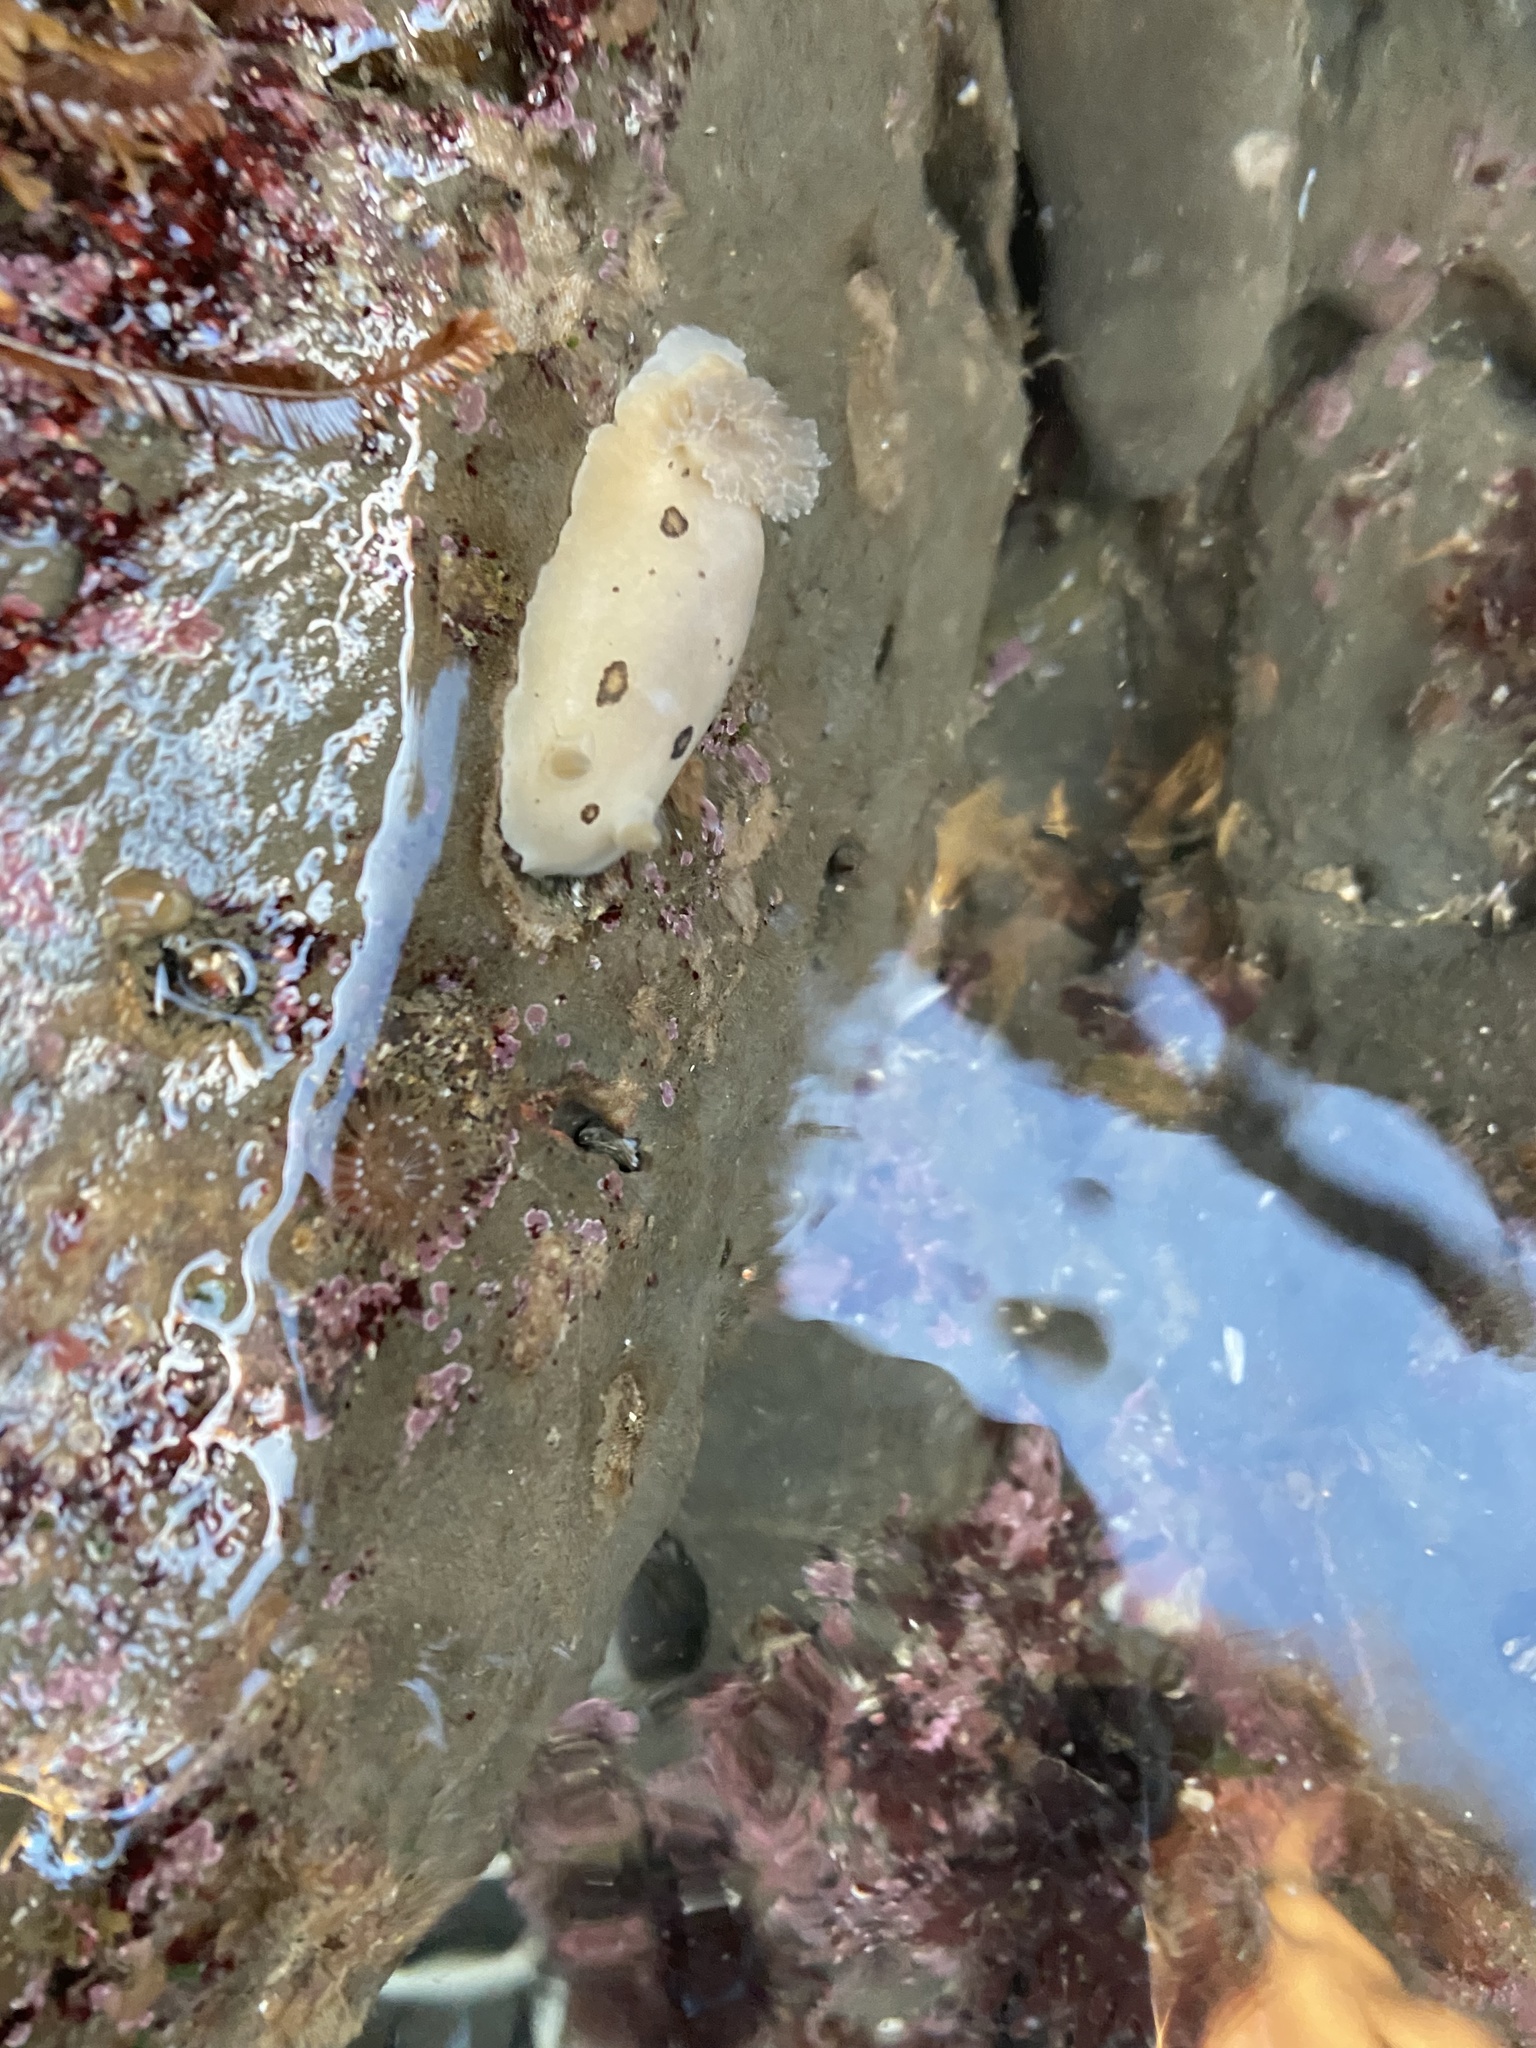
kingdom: Animalia
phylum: Mollusca
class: Gastropoda
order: Nudibranchia
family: Discodorididae
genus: Diaulula
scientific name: Diaulula sandiegensis
